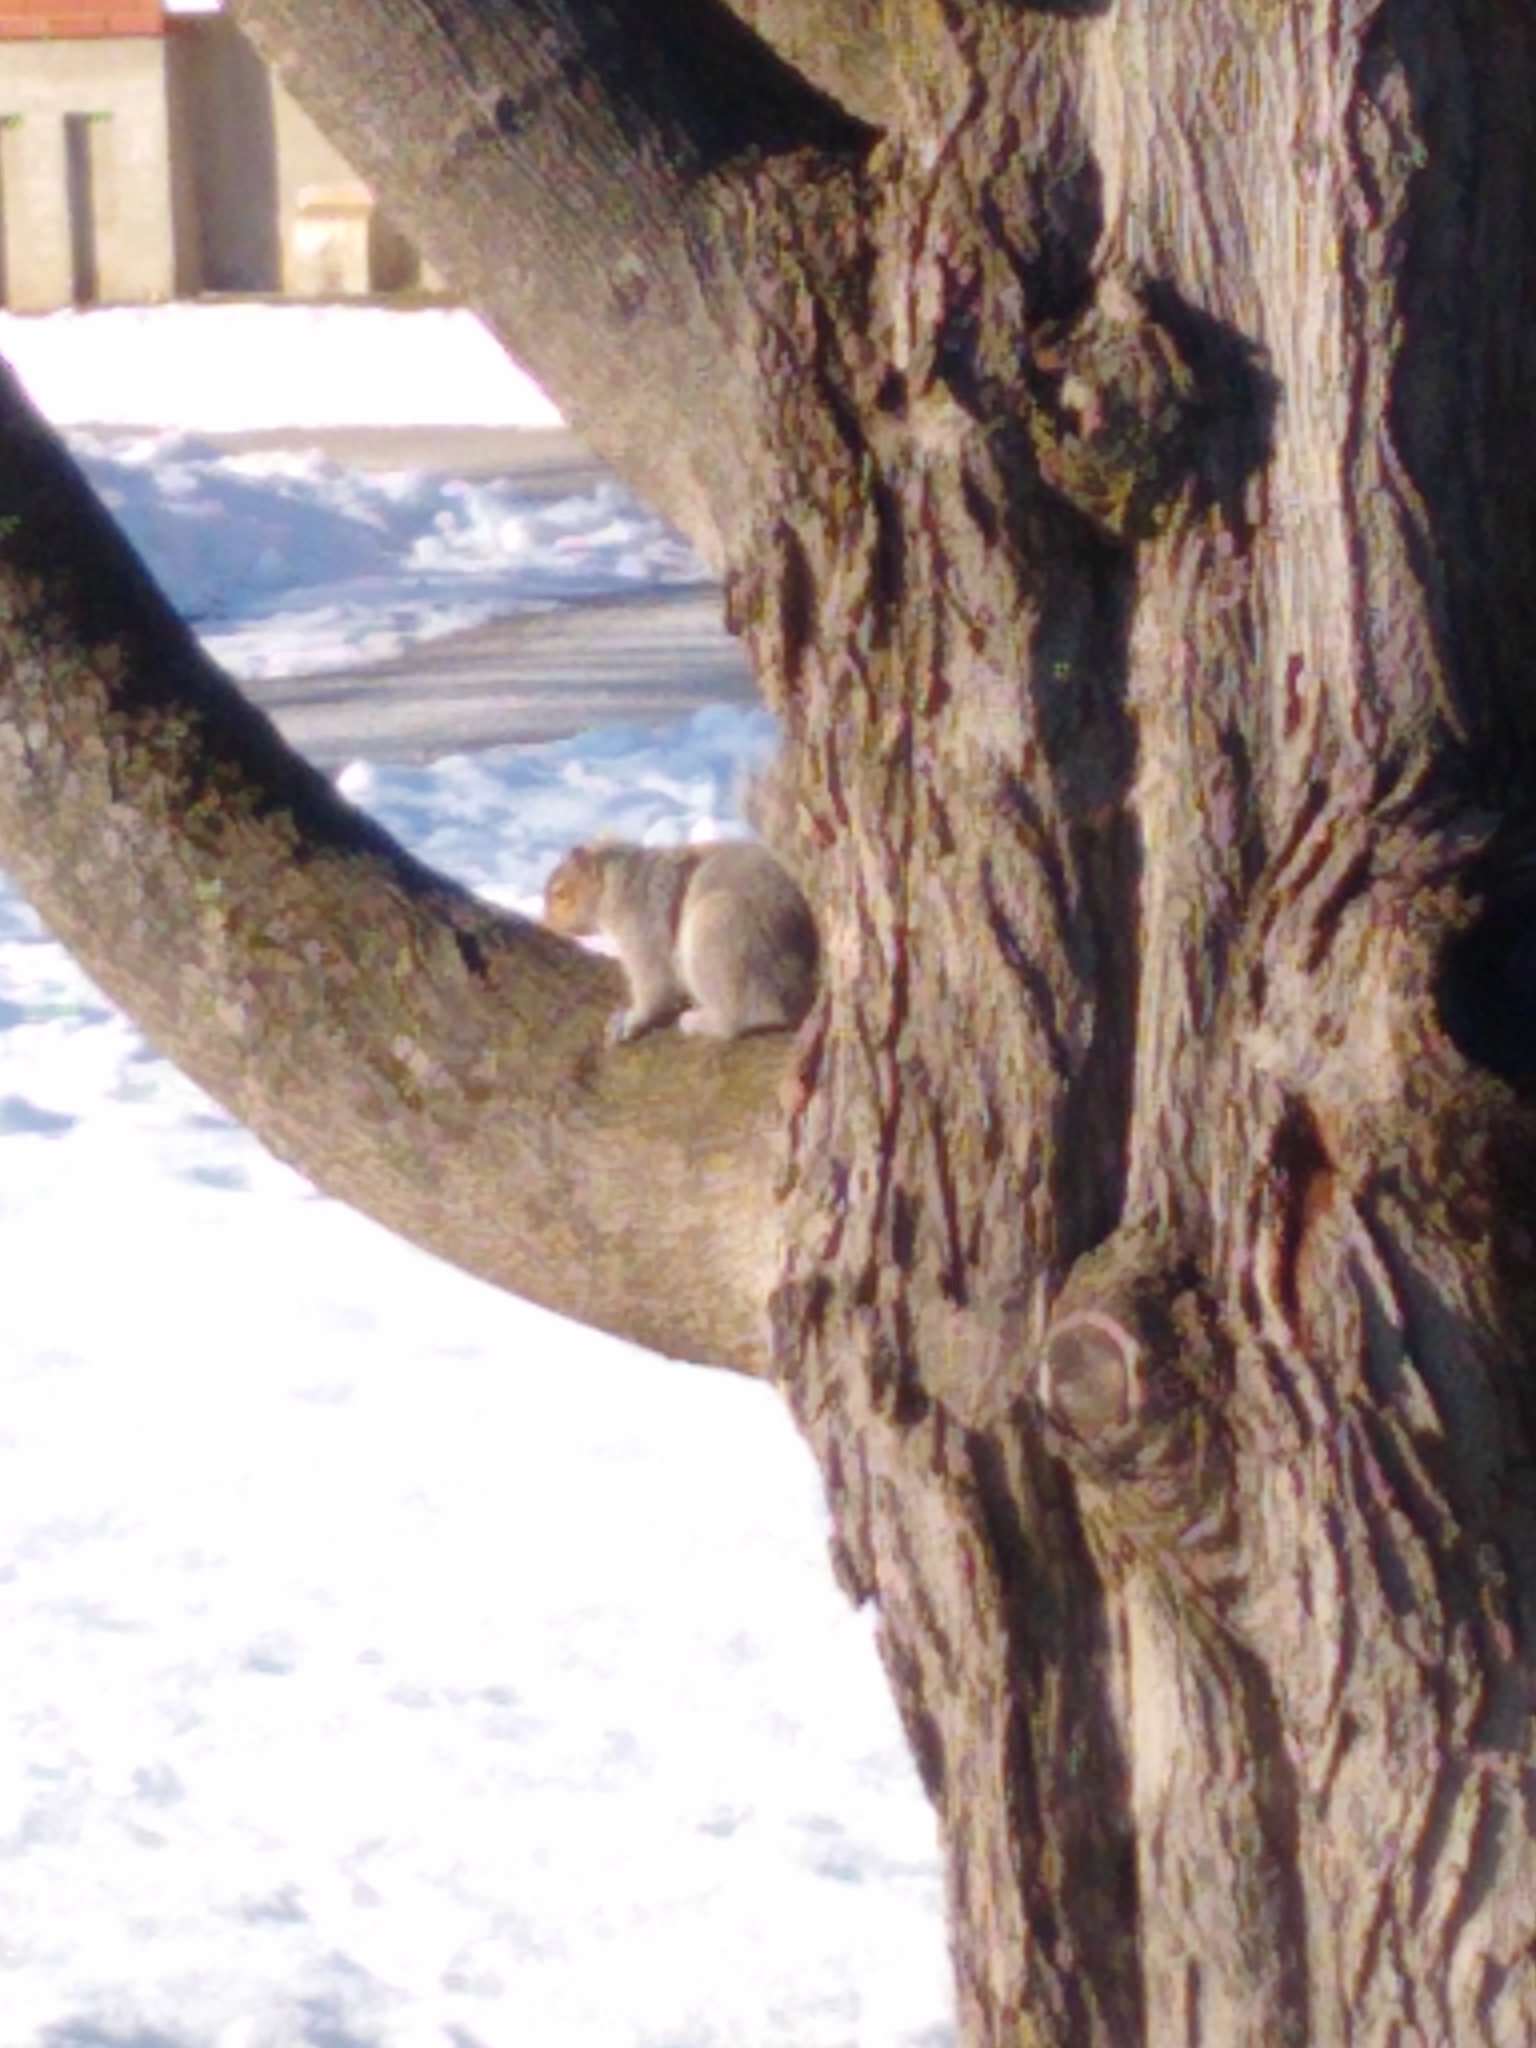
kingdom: Animalia
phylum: Chordata
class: Mammalia
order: Rodentia
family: Sciuridae
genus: Sciurus
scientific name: Sciurus carolinensis
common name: Eastern gray squirrel
